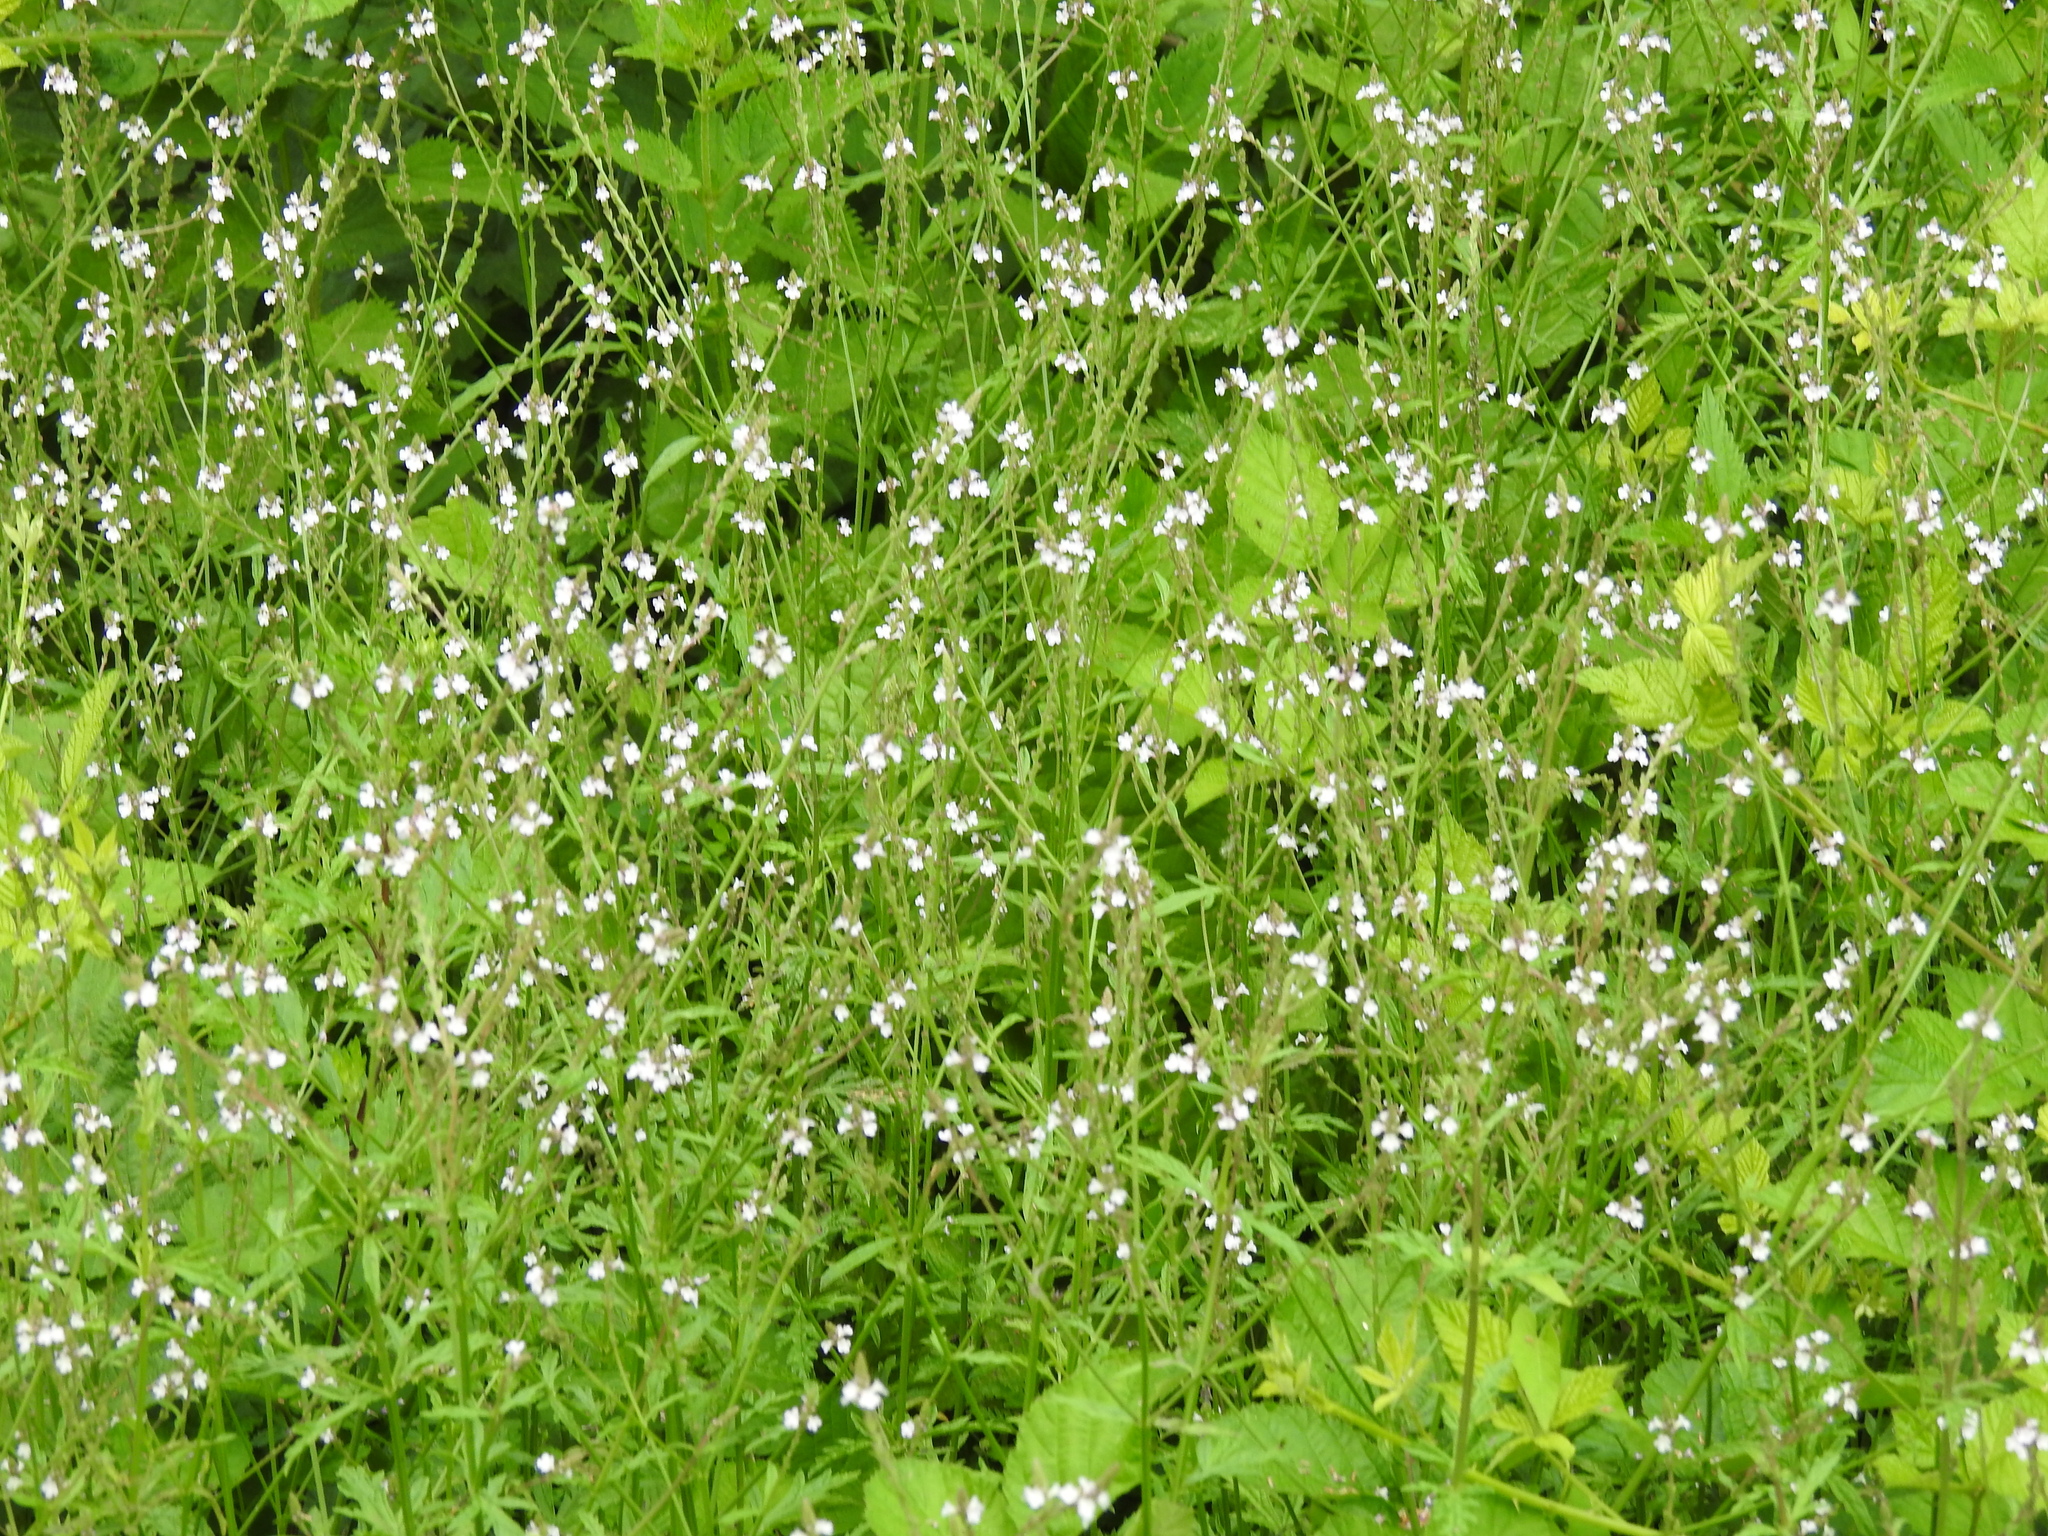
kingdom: Plantae
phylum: Tracheophyta
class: Magnoliopsida
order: Lamiales
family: Verbenaceae
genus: Verbena
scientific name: Verbena officinalis
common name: Vervain
